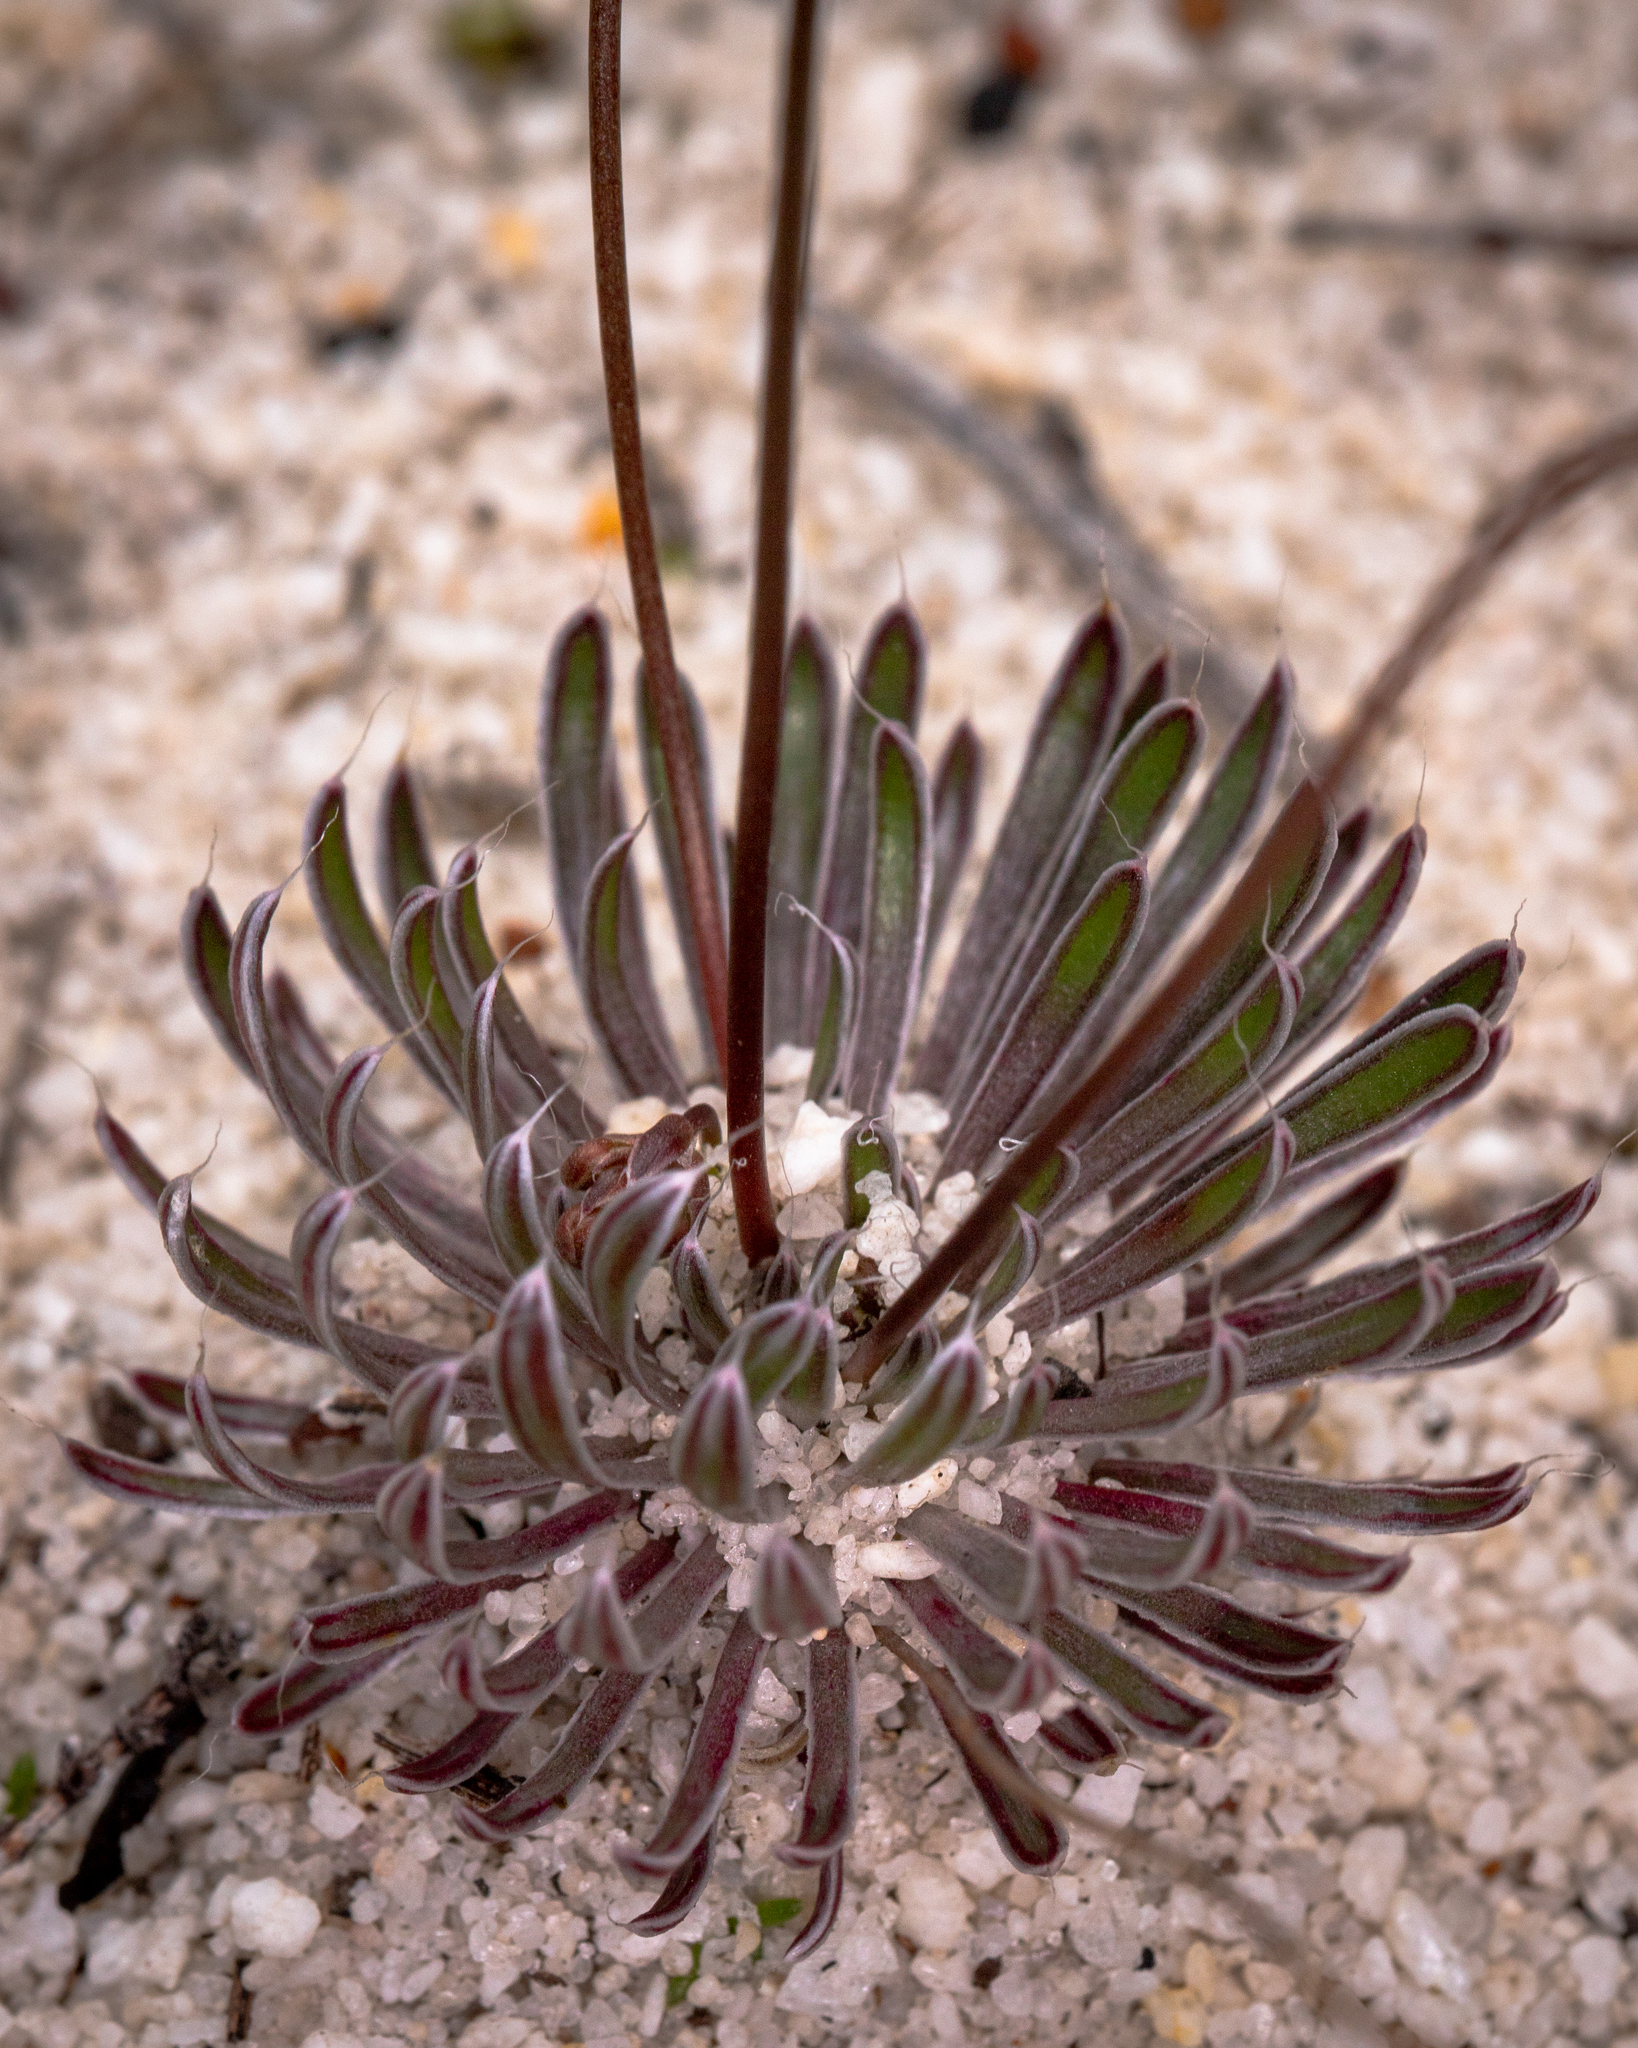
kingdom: Plantae
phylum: Tracheophyta
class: Magnoliopsida
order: Asterales
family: Stylidiaceae
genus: Stylidium
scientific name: Stylidium pubigerum
